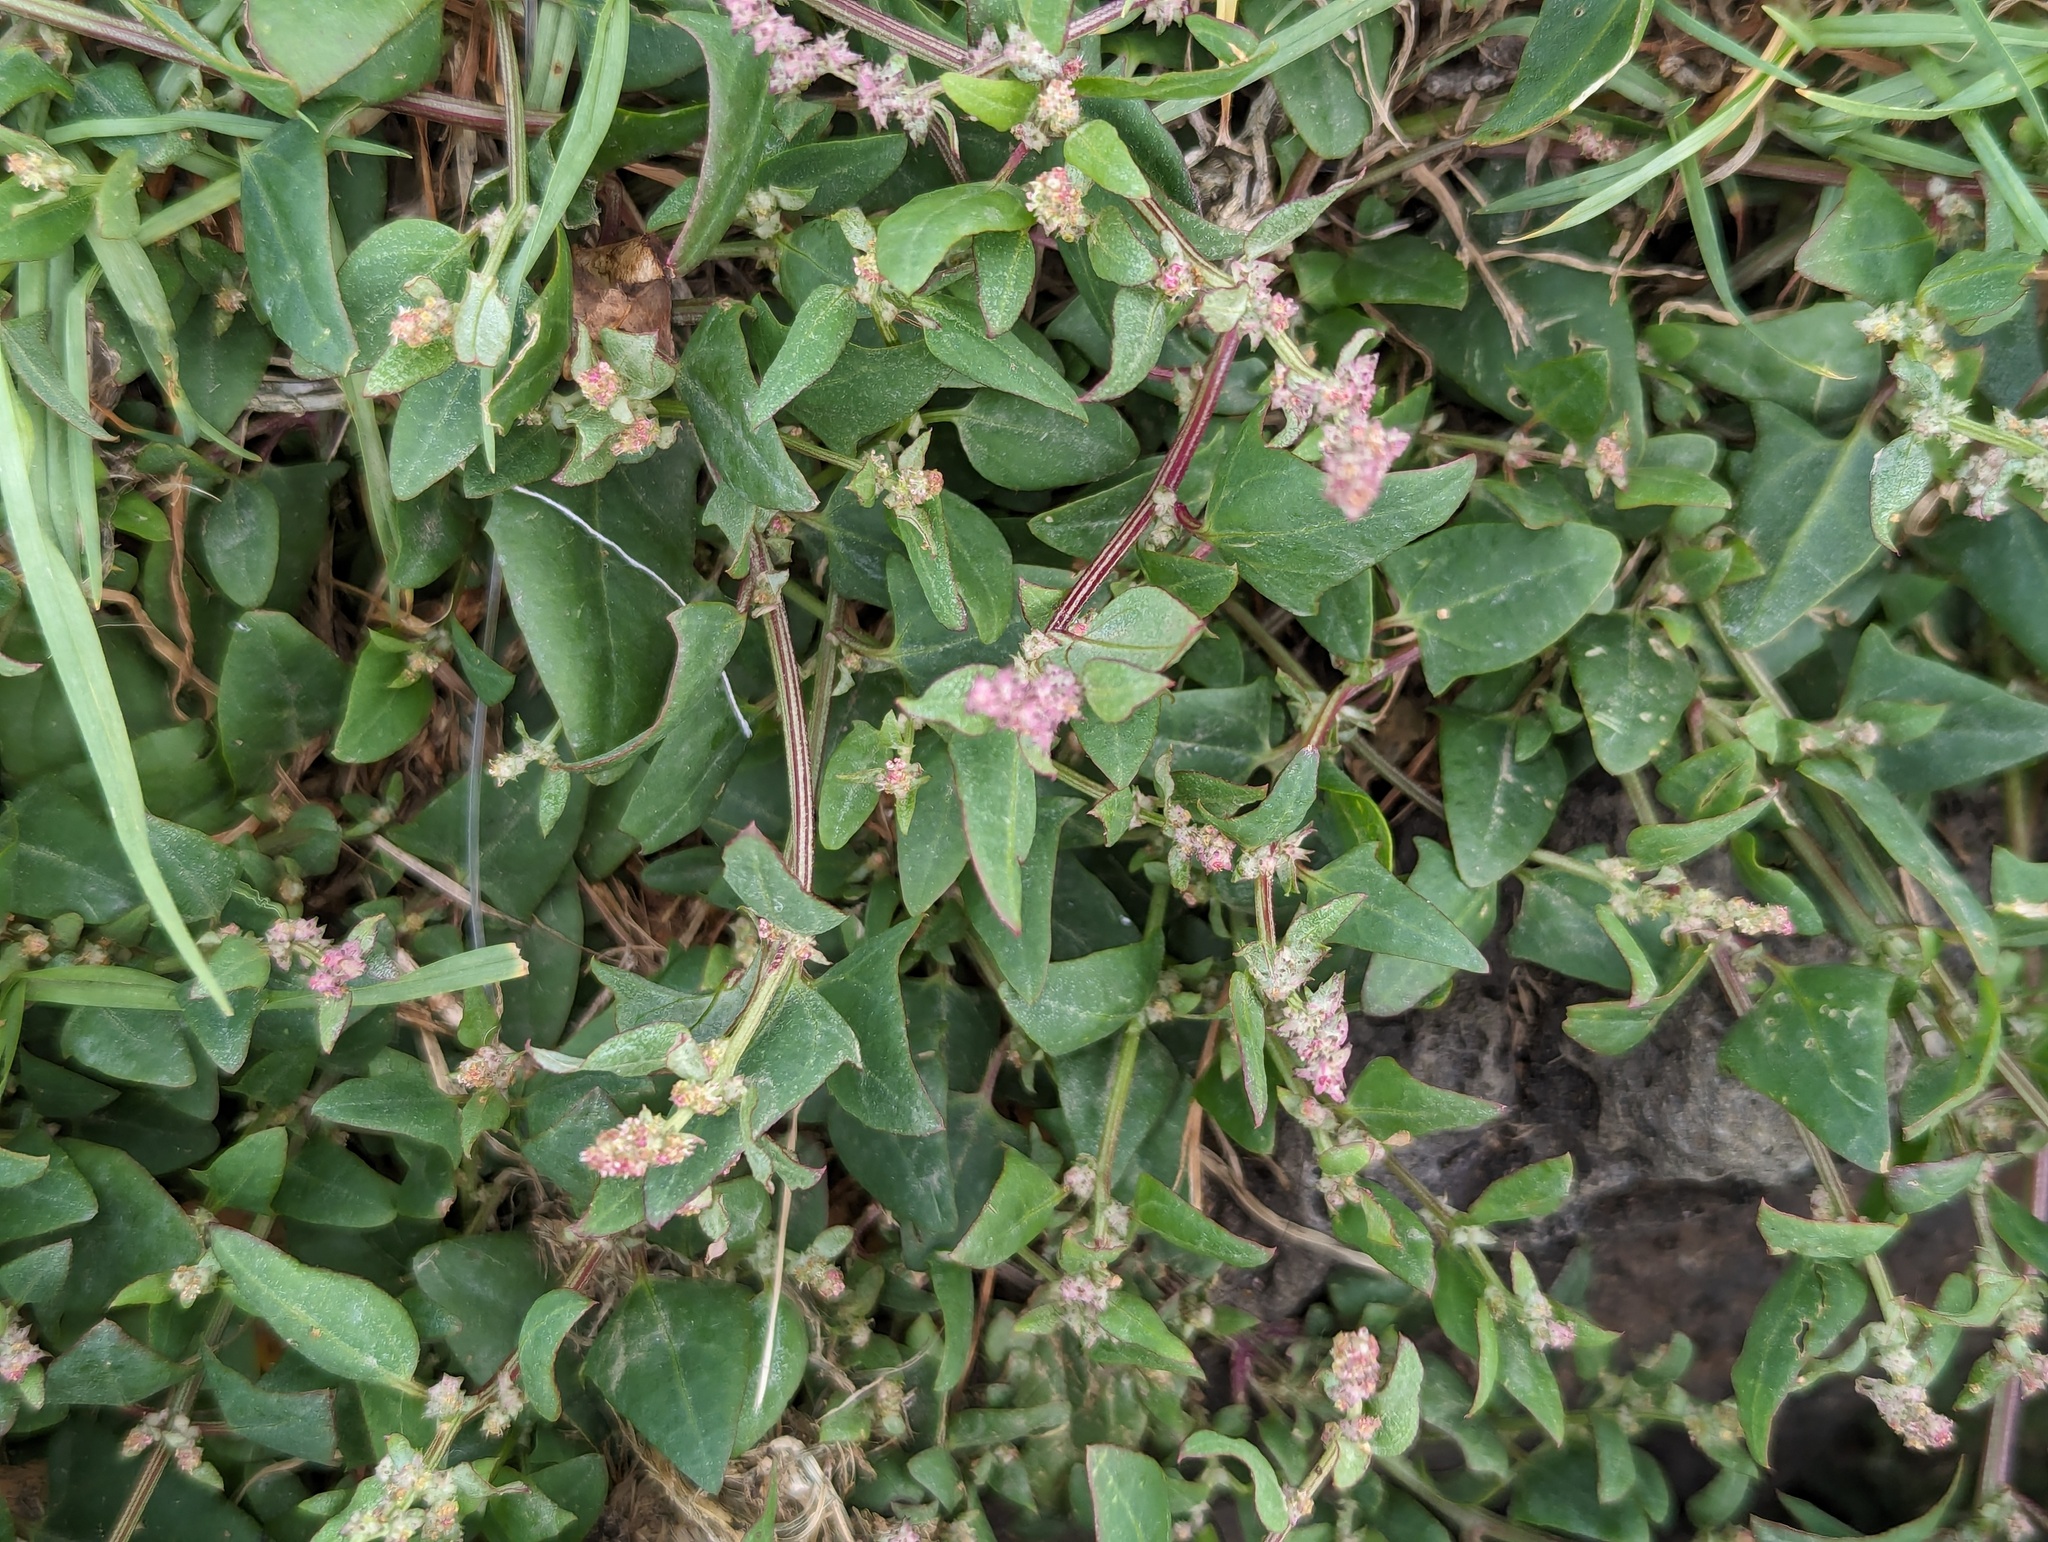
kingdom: Plantae
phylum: Tracheophyta
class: Magnoliopsida
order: Caryophyllales
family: Amaranthaceae
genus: Atriplex
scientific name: Atriplex prostrata
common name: Spear-leaved orache
